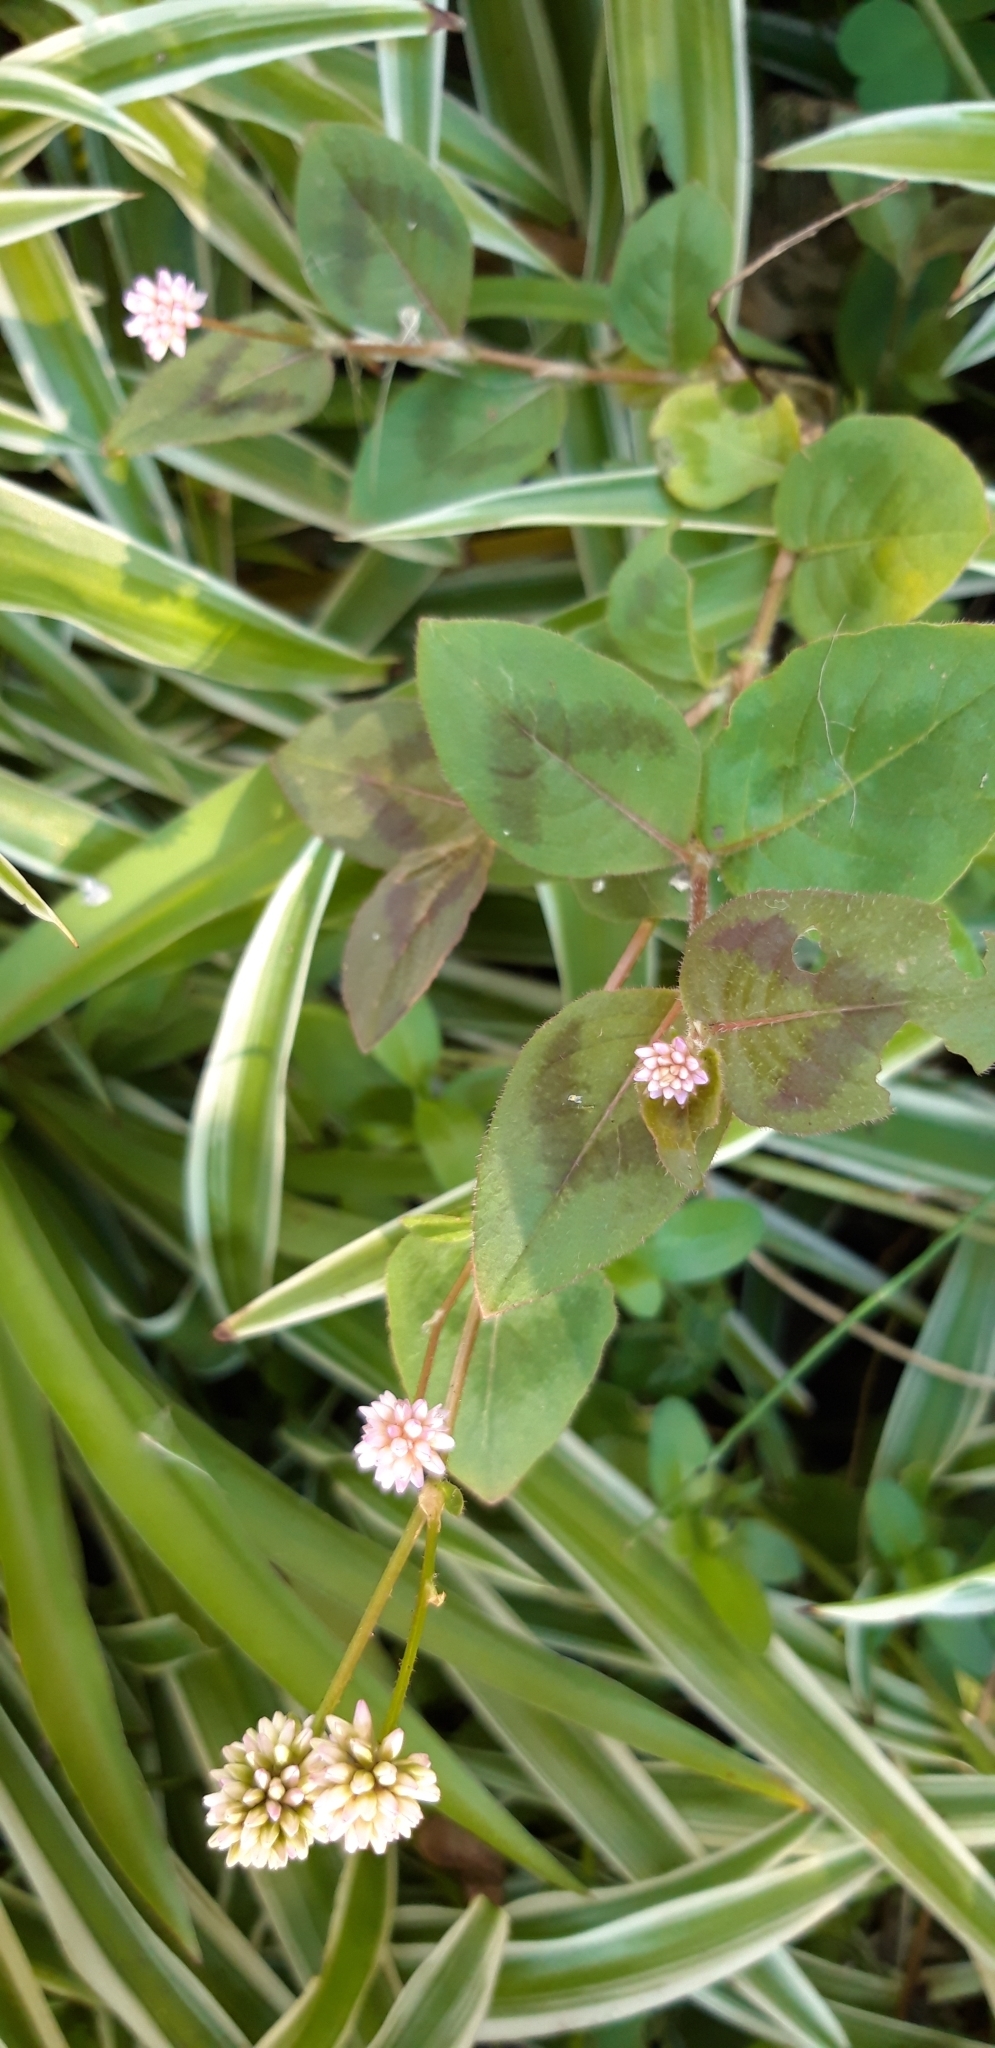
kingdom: Plantae
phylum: Tracheophyta
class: Magnoliopsida
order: Caryophyllales
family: Polygonaceae
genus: Persicaria
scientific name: Persicaria capitata
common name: Pinkhead smartweed
